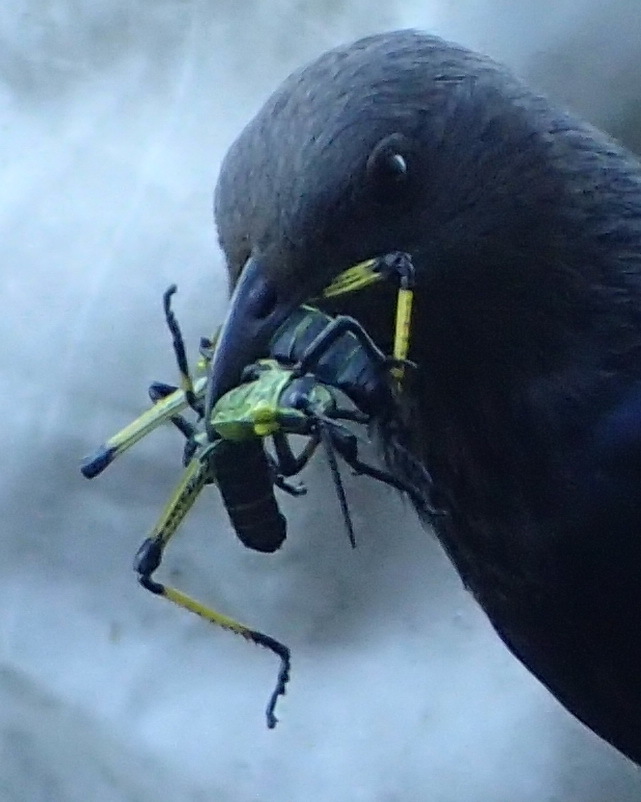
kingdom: Animalia
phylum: Arthropoda
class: Insecta
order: Orthoptera
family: Pyrgomorphidae
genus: Phymateus
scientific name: Phymateus leprosus
